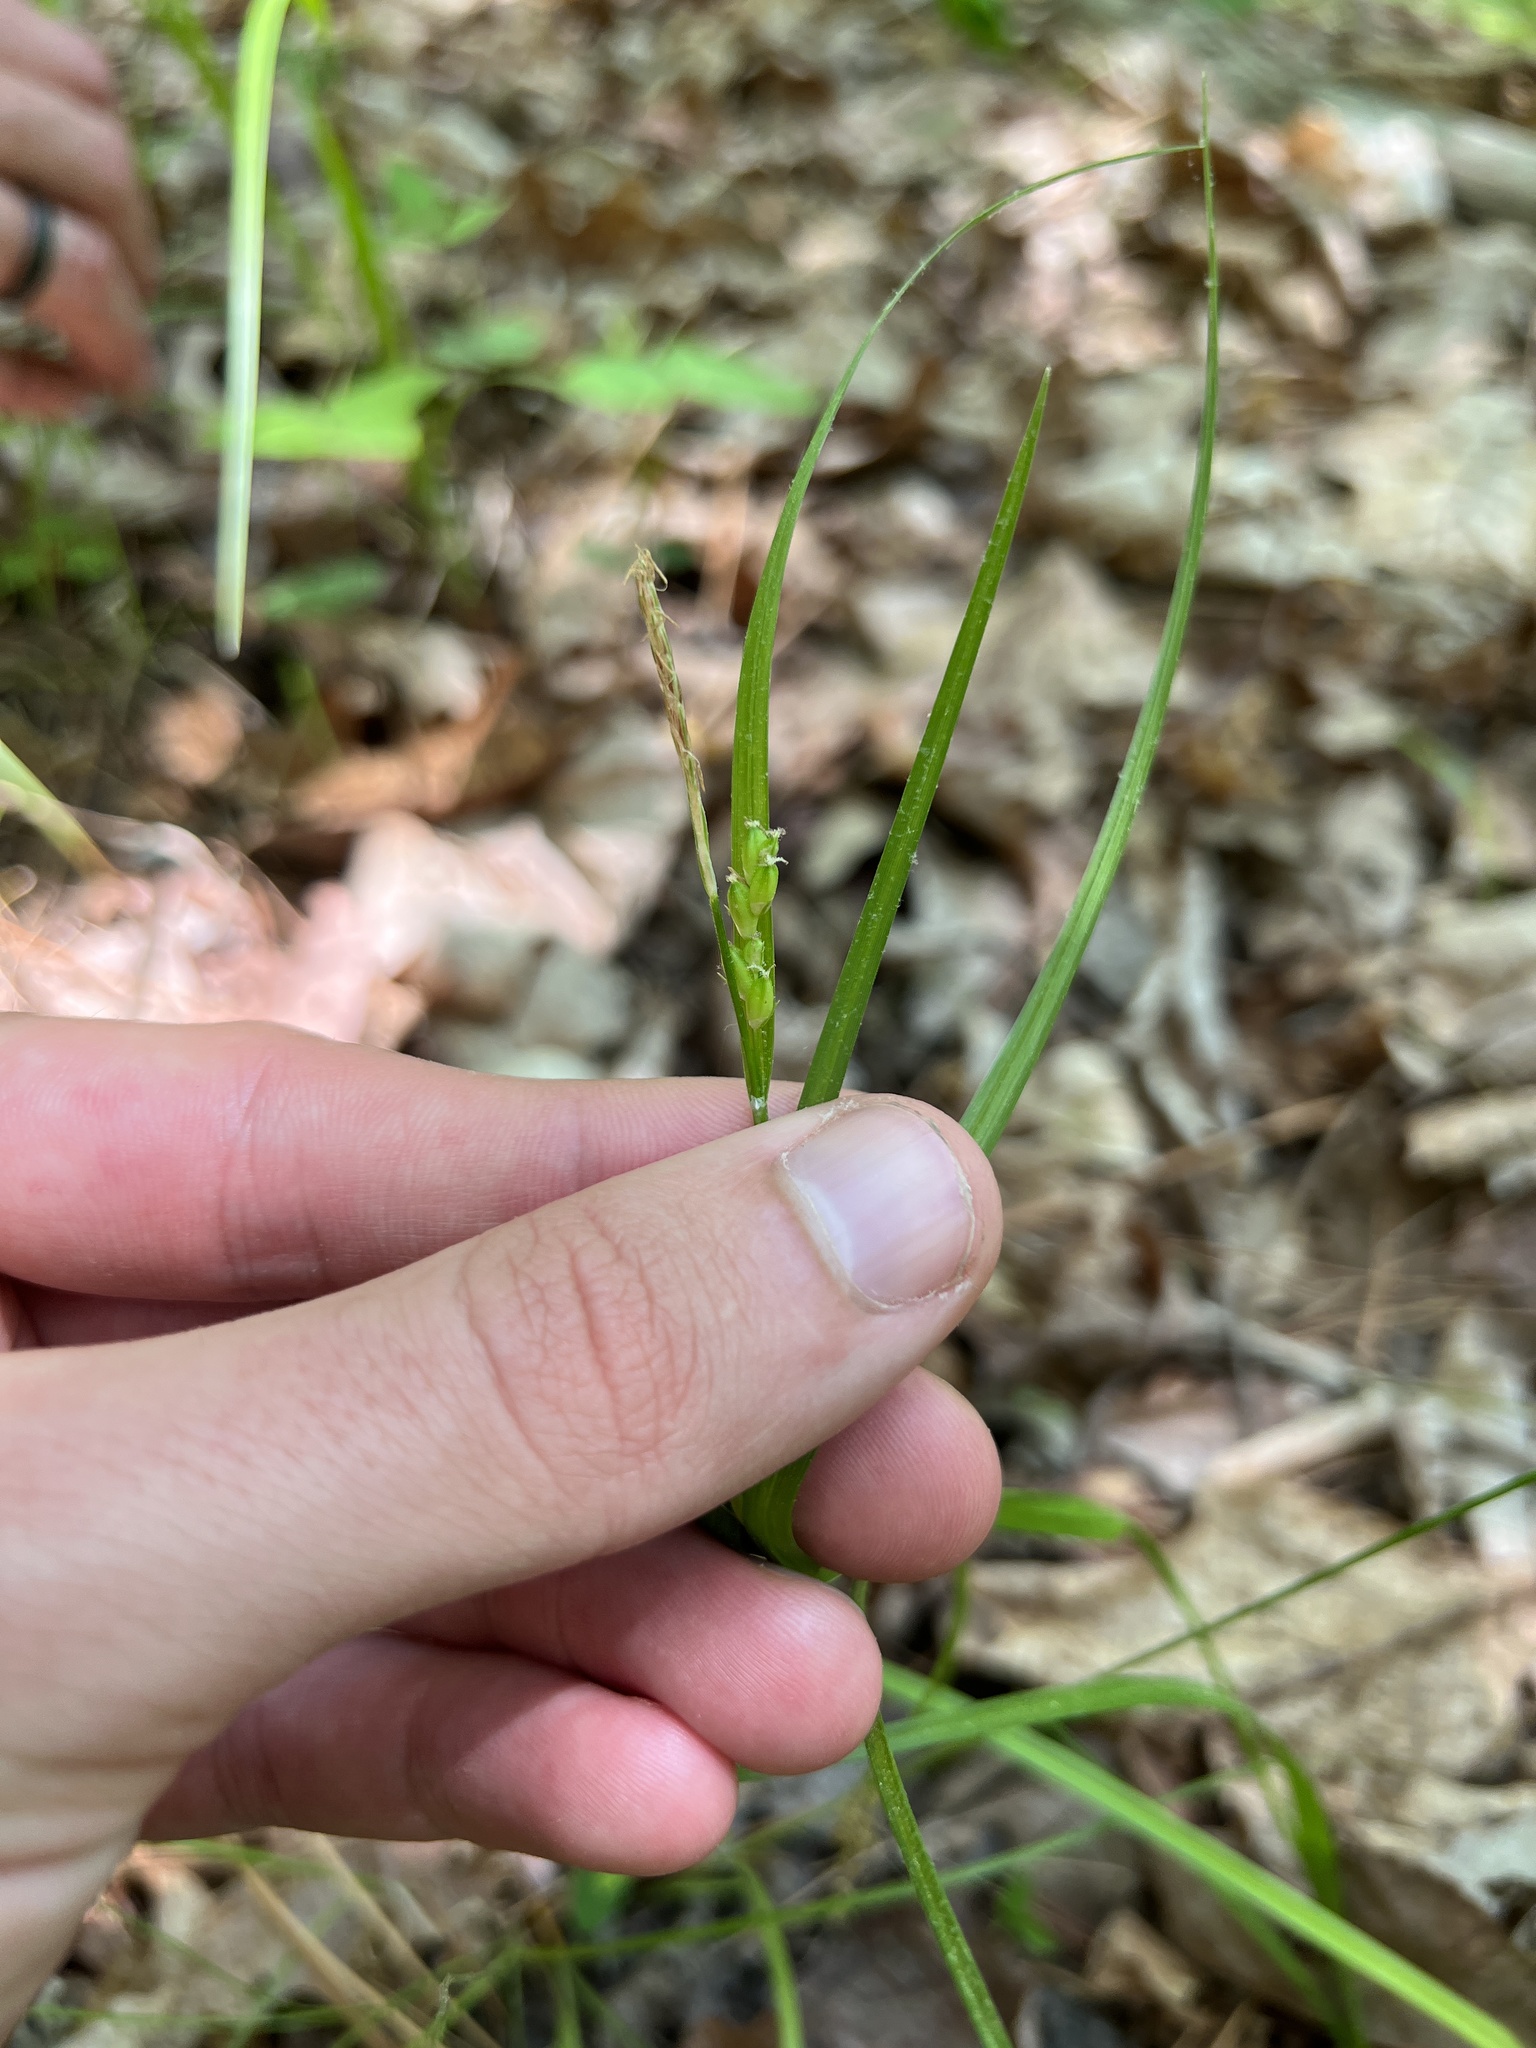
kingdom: Plantae
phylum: Tracheophyta
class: Liliopsida
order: Poales
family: Cyperaceae
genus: Carex
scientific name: Carex planispicata
